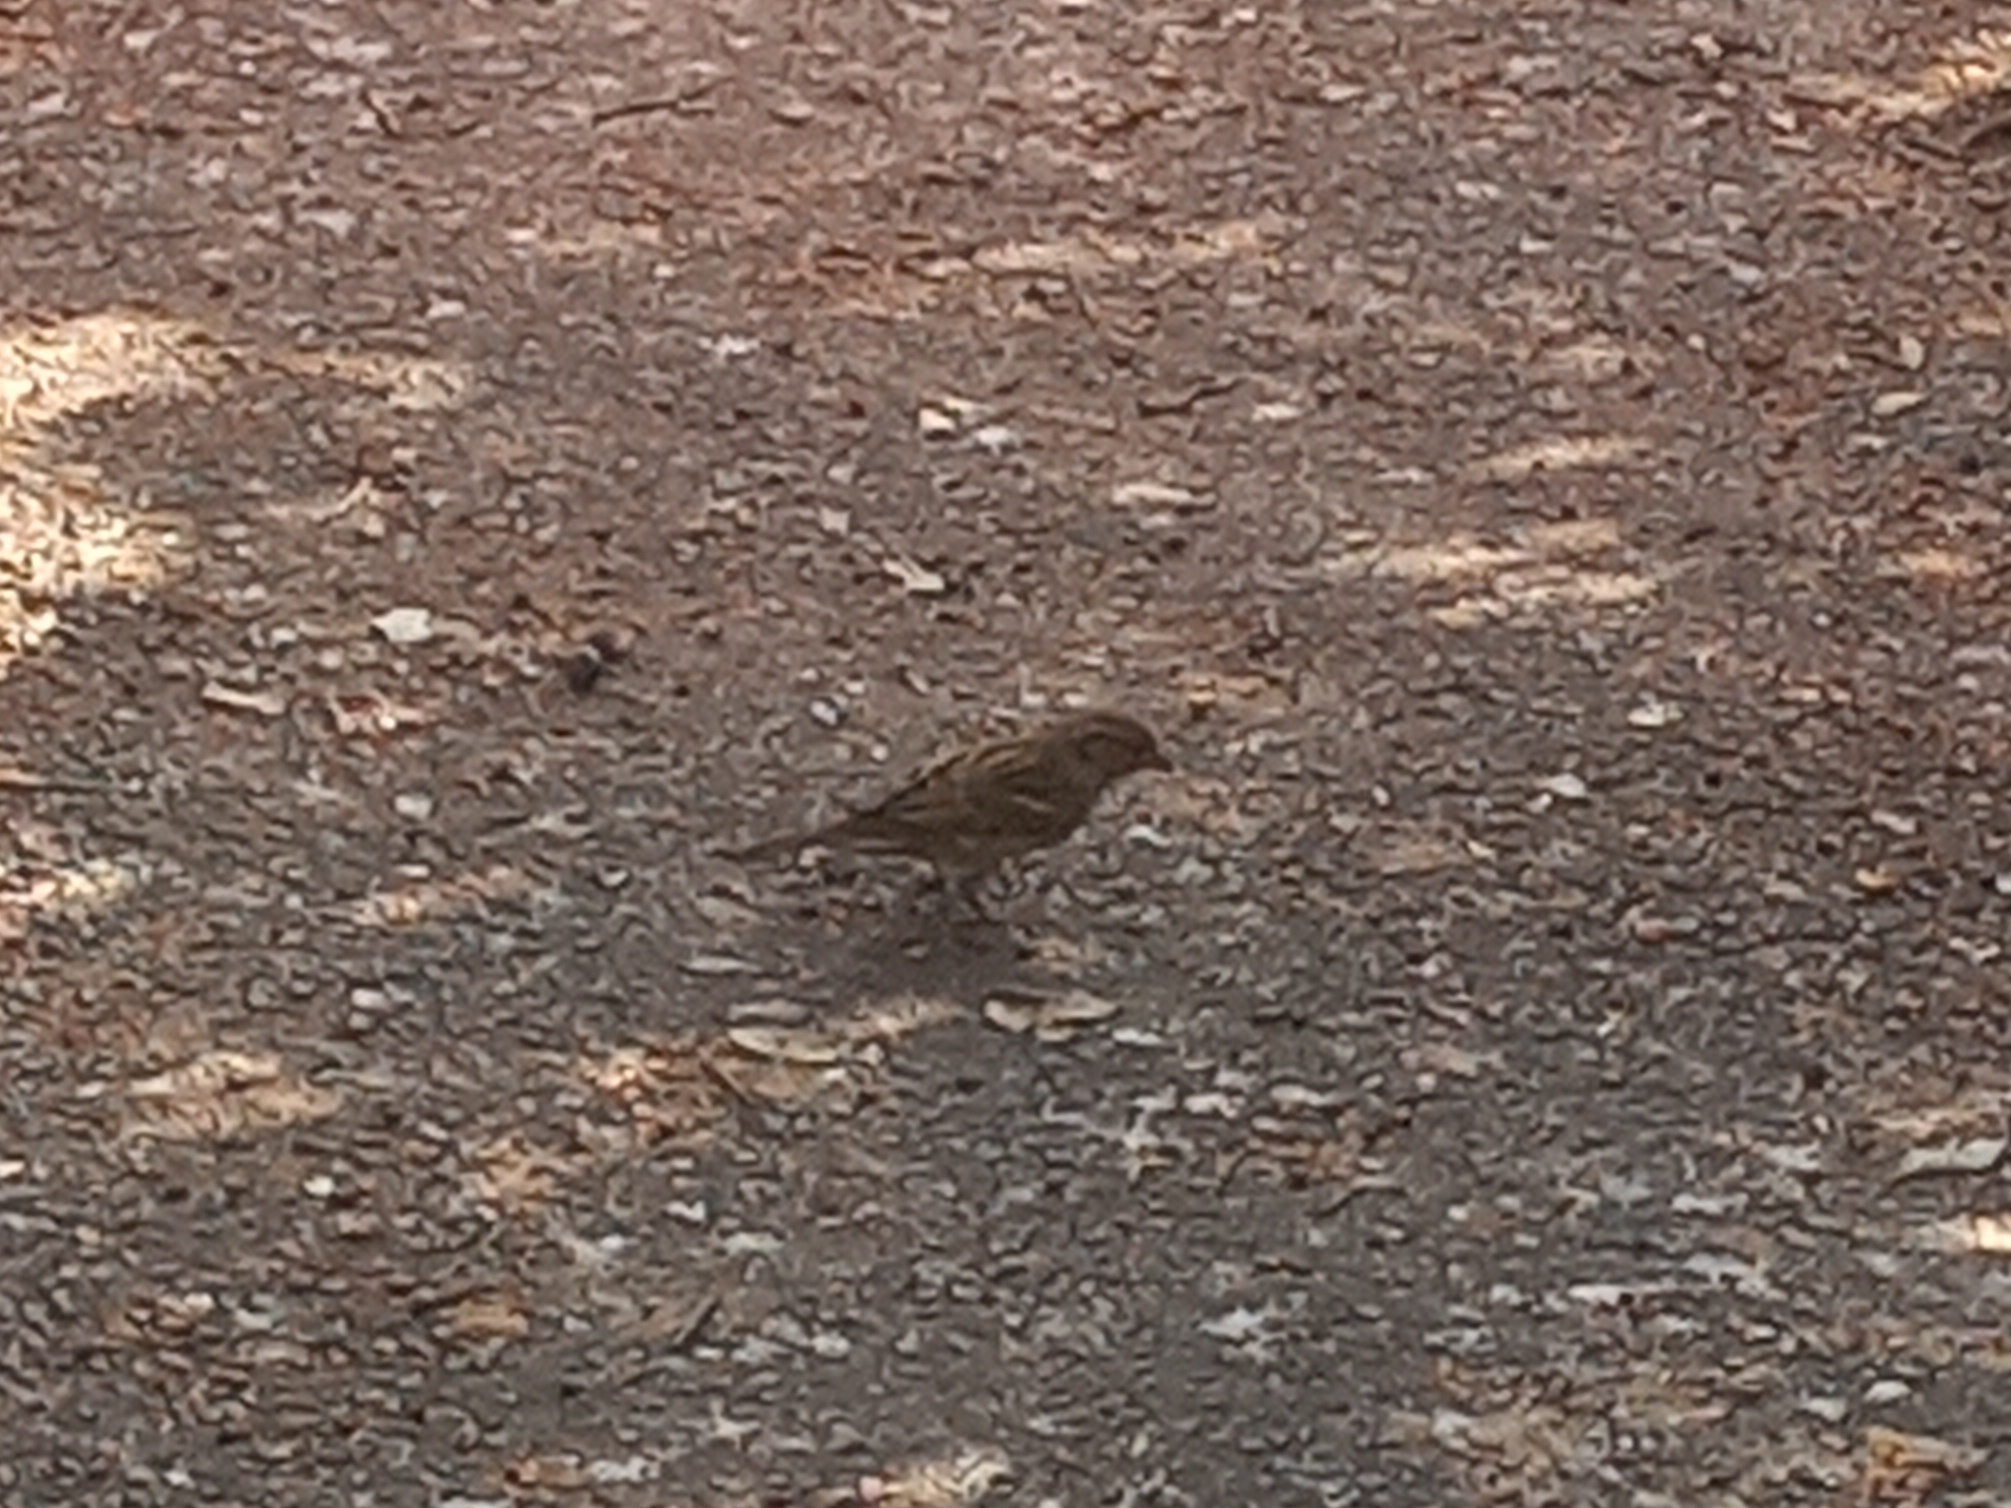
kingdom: Animalia
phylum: Chordata
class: Aves
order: Passeriformes
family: Passeridae
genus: Passer
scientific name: Passer domesticus
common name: House sparrow
